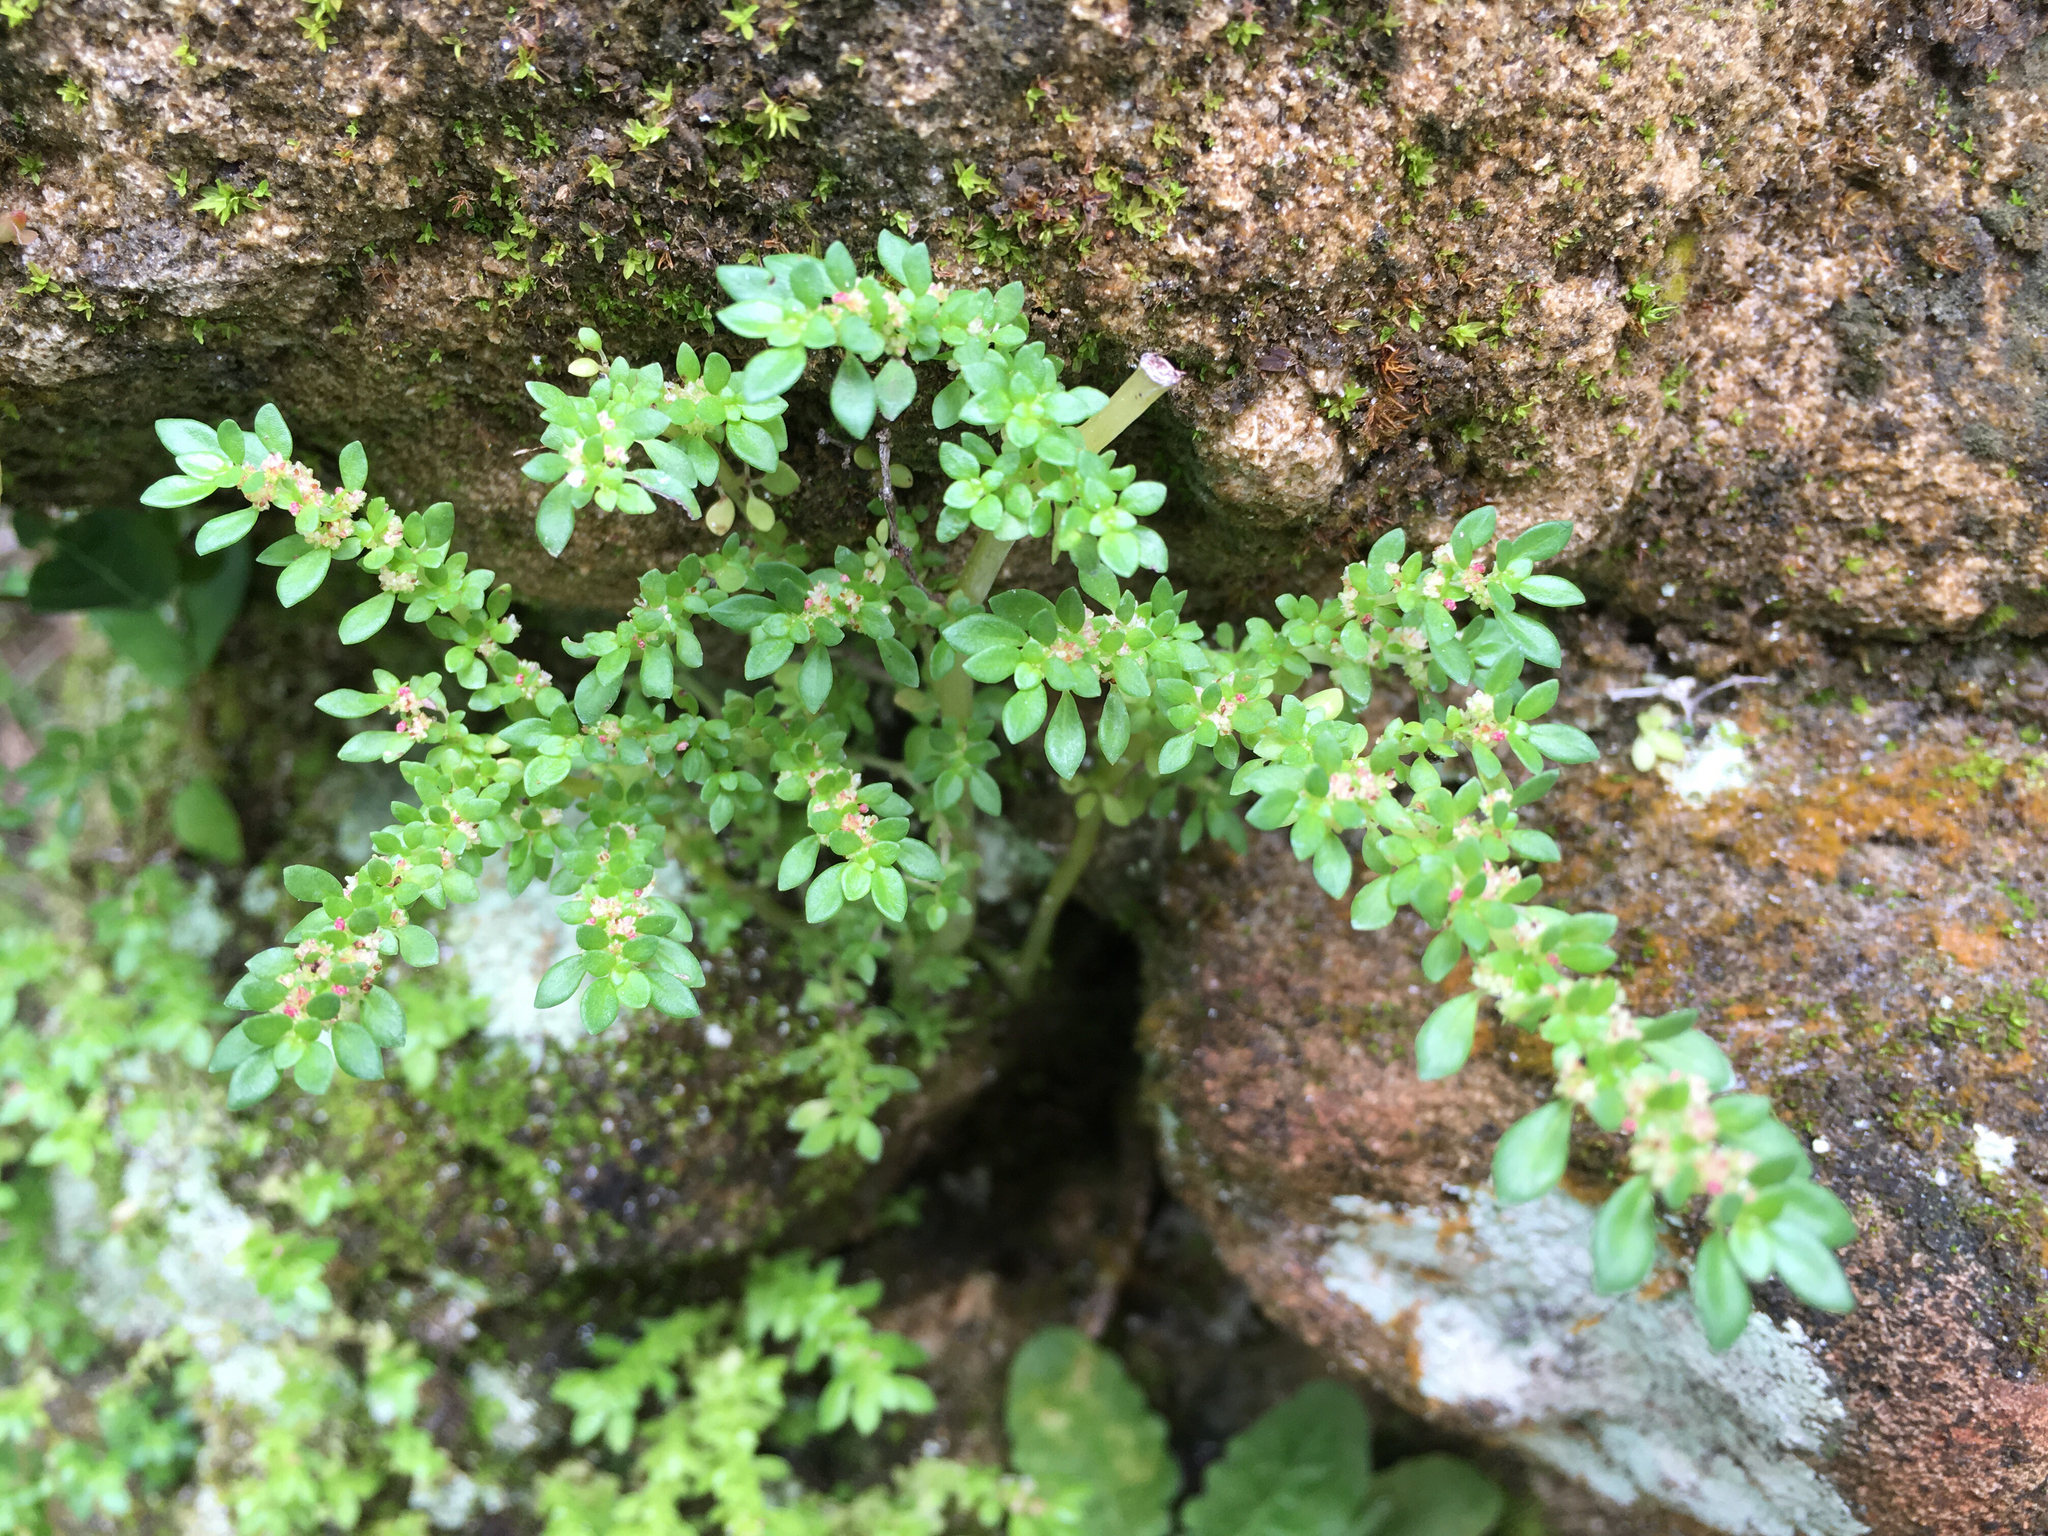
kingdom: Plantae
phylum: Tracheophyta
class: Magnoliopsida
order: Rosales
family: Urticaceae
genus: Pilea
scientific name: Pilea microphylla
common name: Artillery-plant
